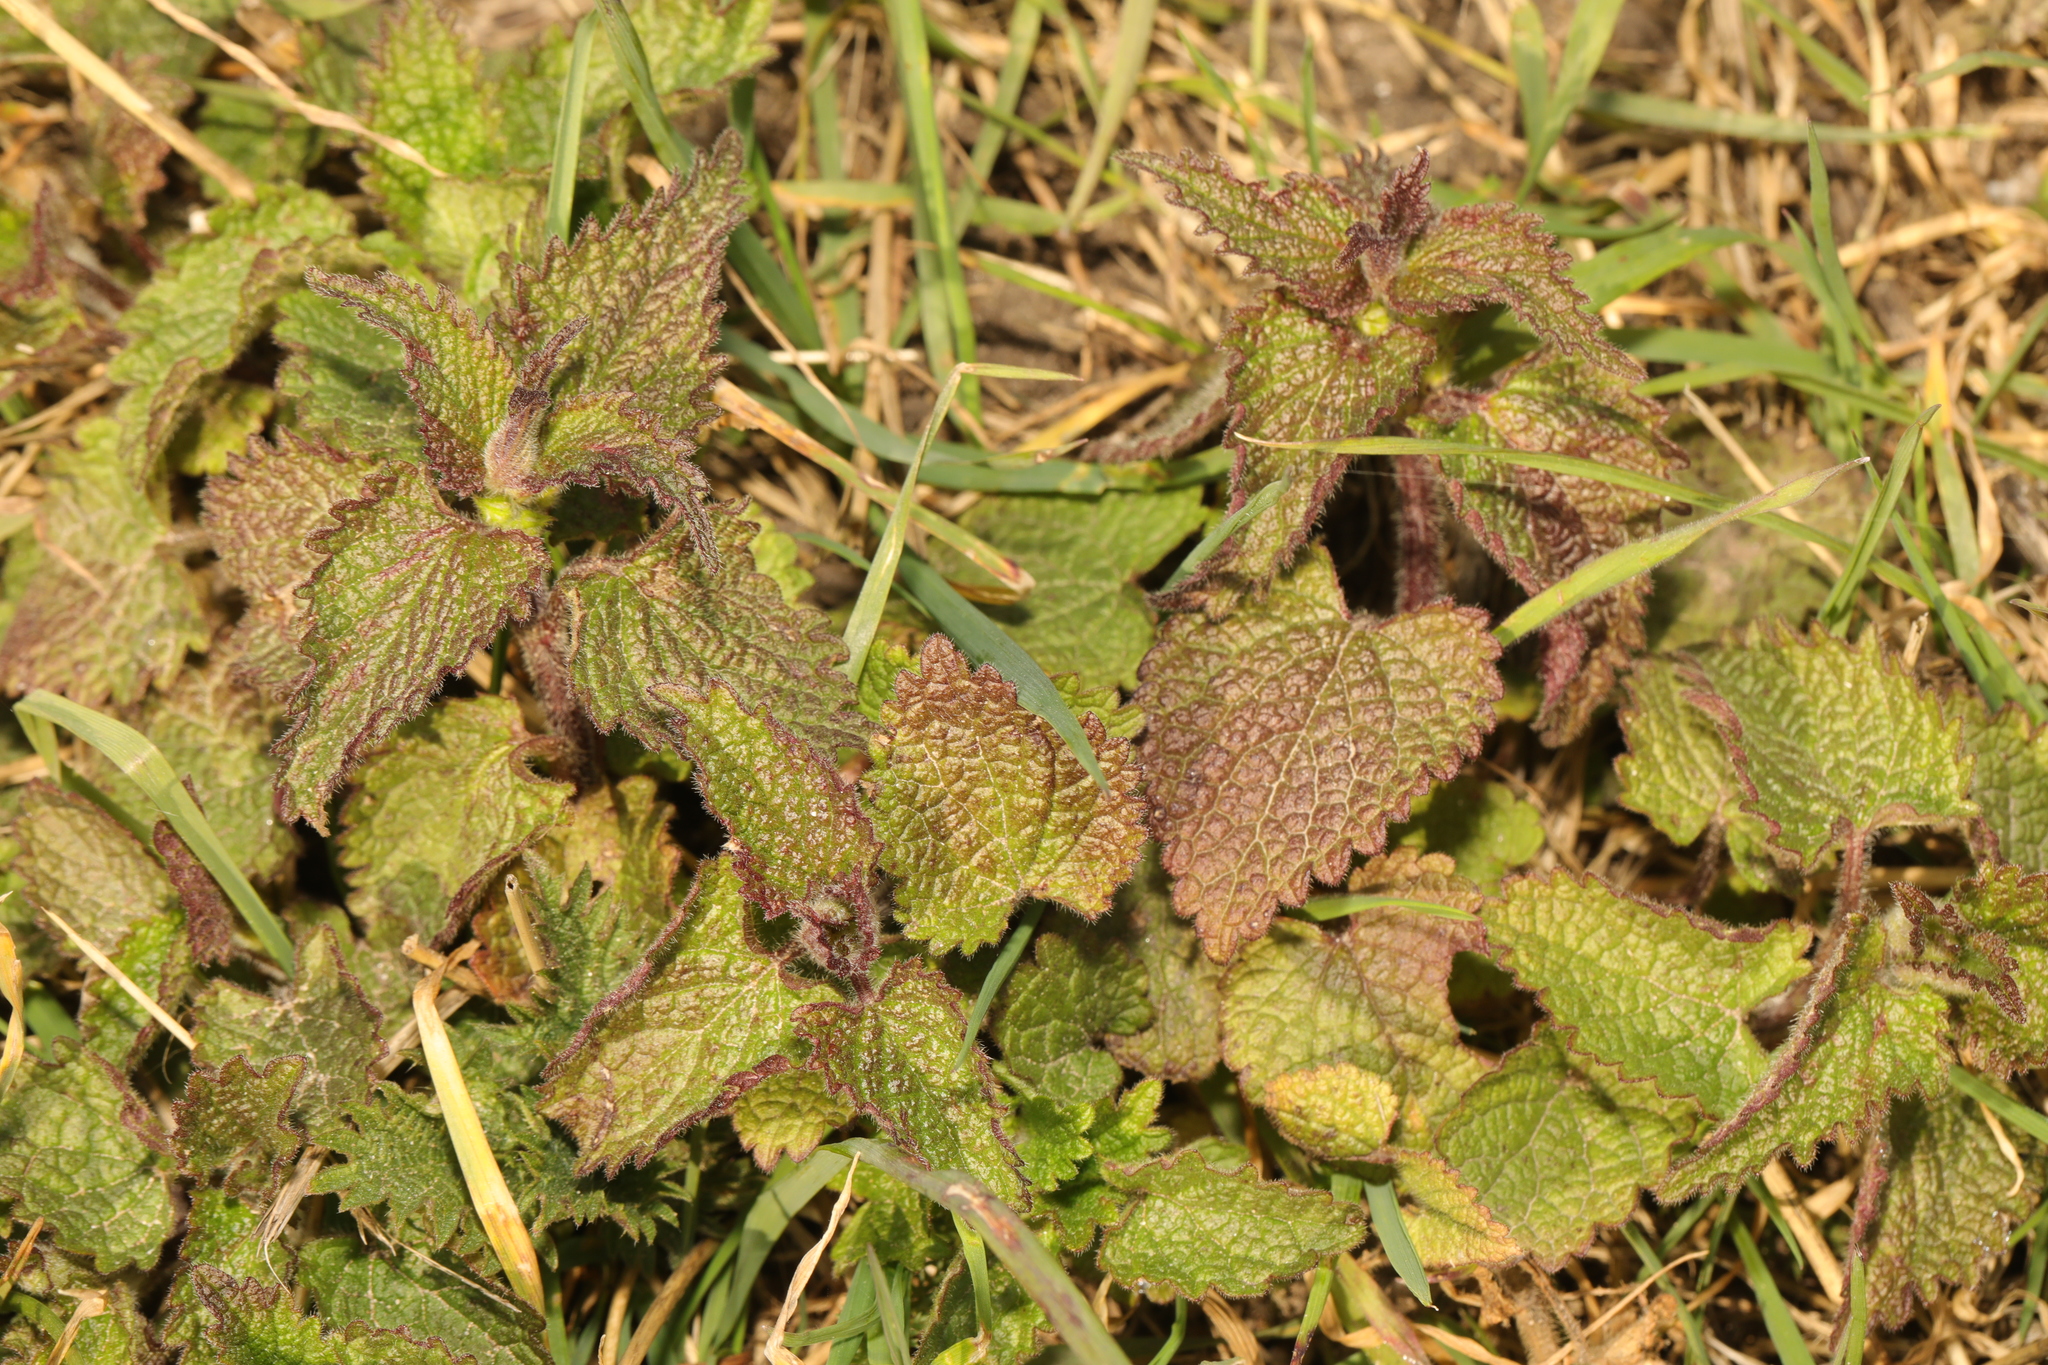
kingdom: Plantae
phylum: Tracheophyta
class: Magnoliopsida
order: Lamiales
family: Lamiaceae
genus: Lamium
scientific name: Lamium album
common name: White dead-nettle
